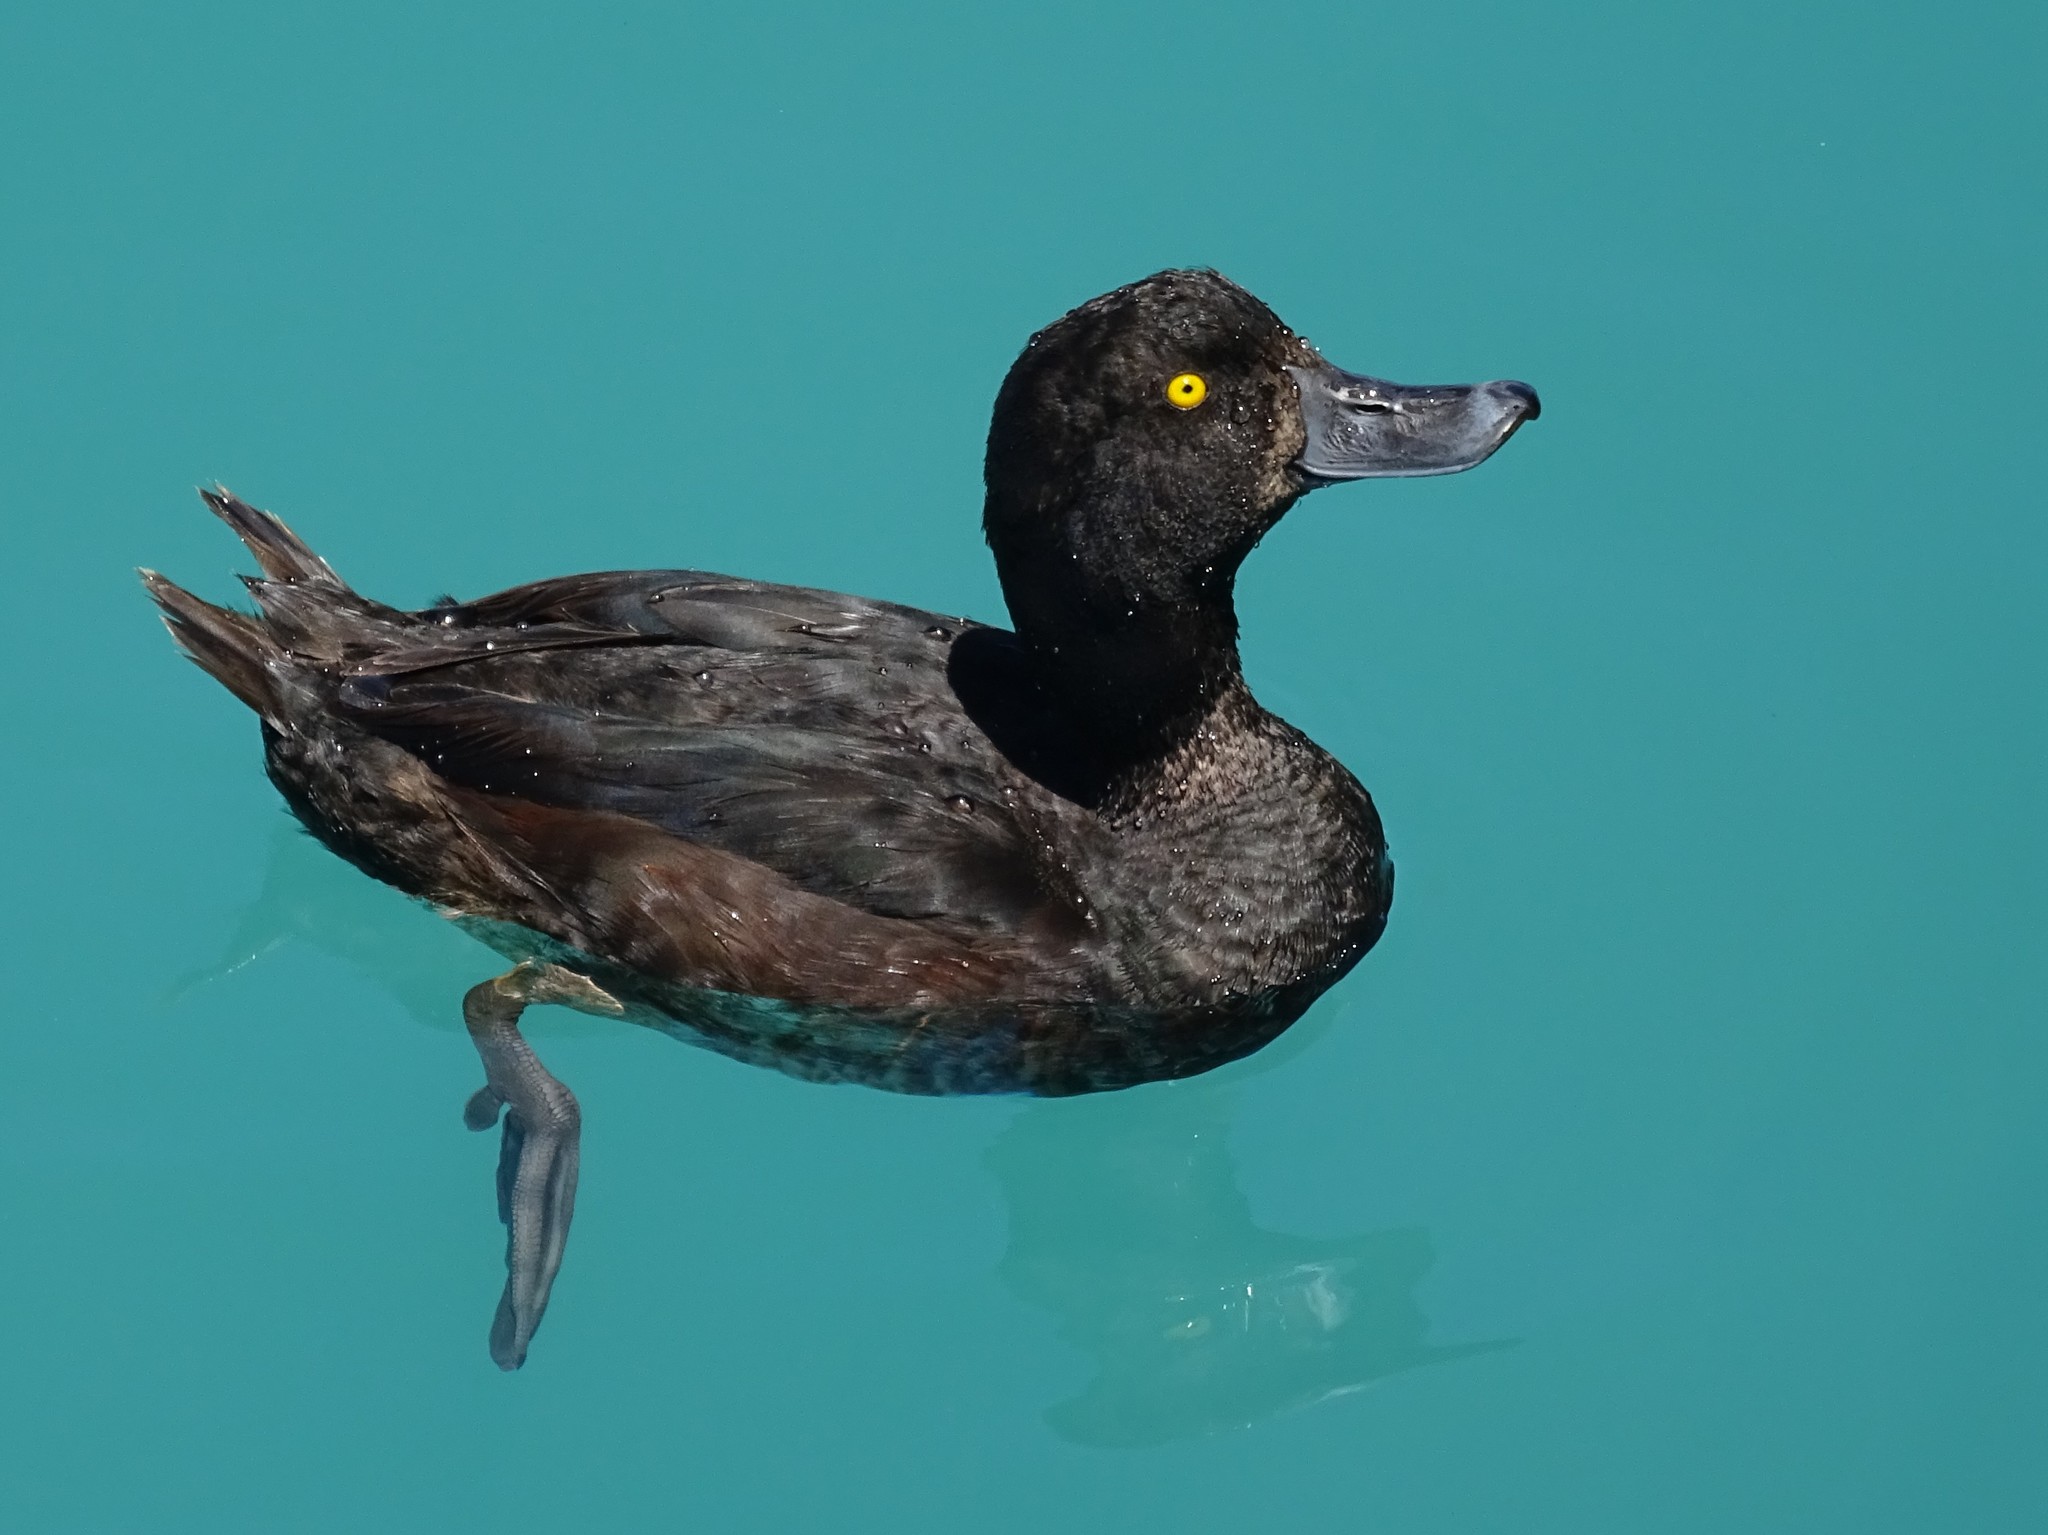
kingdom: Animalia
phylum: Chordata
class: Aves
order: Anseriformes
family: Anatidae
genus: Aythya
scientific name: Aythya novaeseelandiae
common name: New zealand scaup
